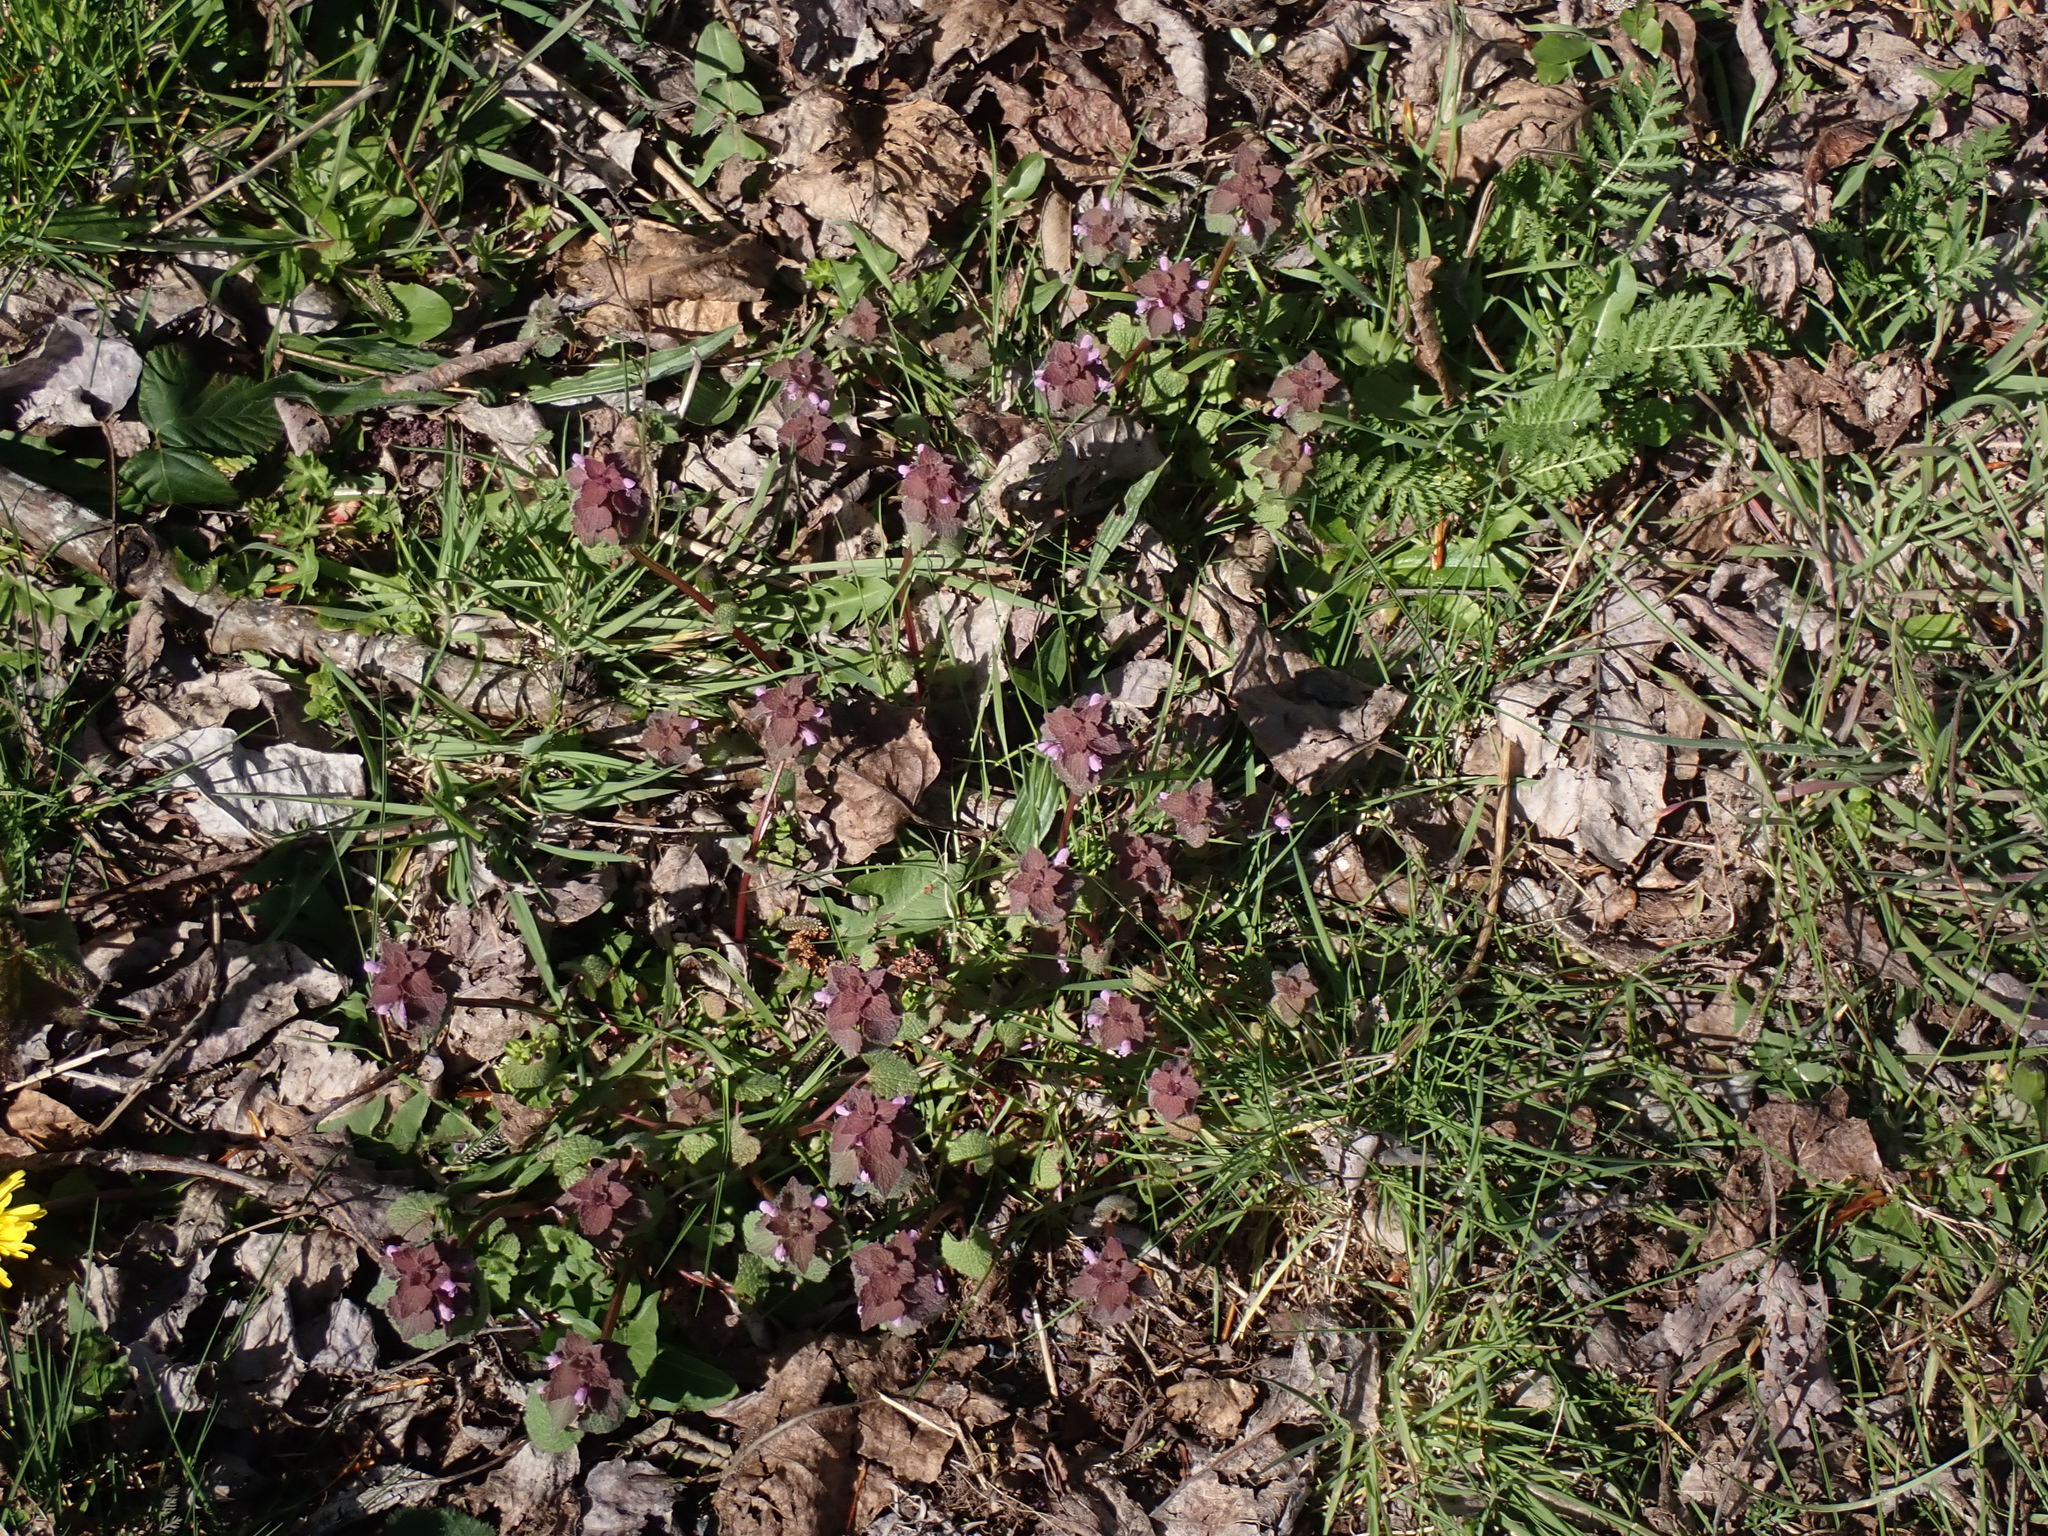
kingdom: Plantae
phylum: Tracheophyta
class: Magnoliopsida
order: Lamiales
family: Lamiaceae
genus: Lamium
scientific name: Lamium purpureum
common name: Red dead-nettle
